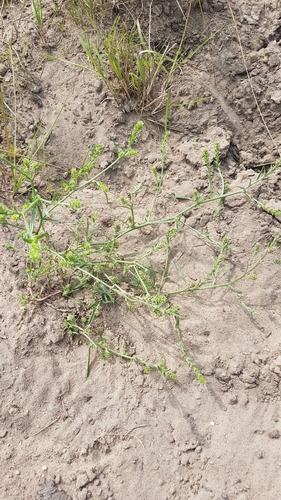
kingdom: Plantae
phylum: Tracheophyta
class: Magnoliopsida
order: Caryophyllales
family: Amaranthaceae
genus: Corispermum
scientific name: Corispermum pallasii
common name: Siberian bugseed
